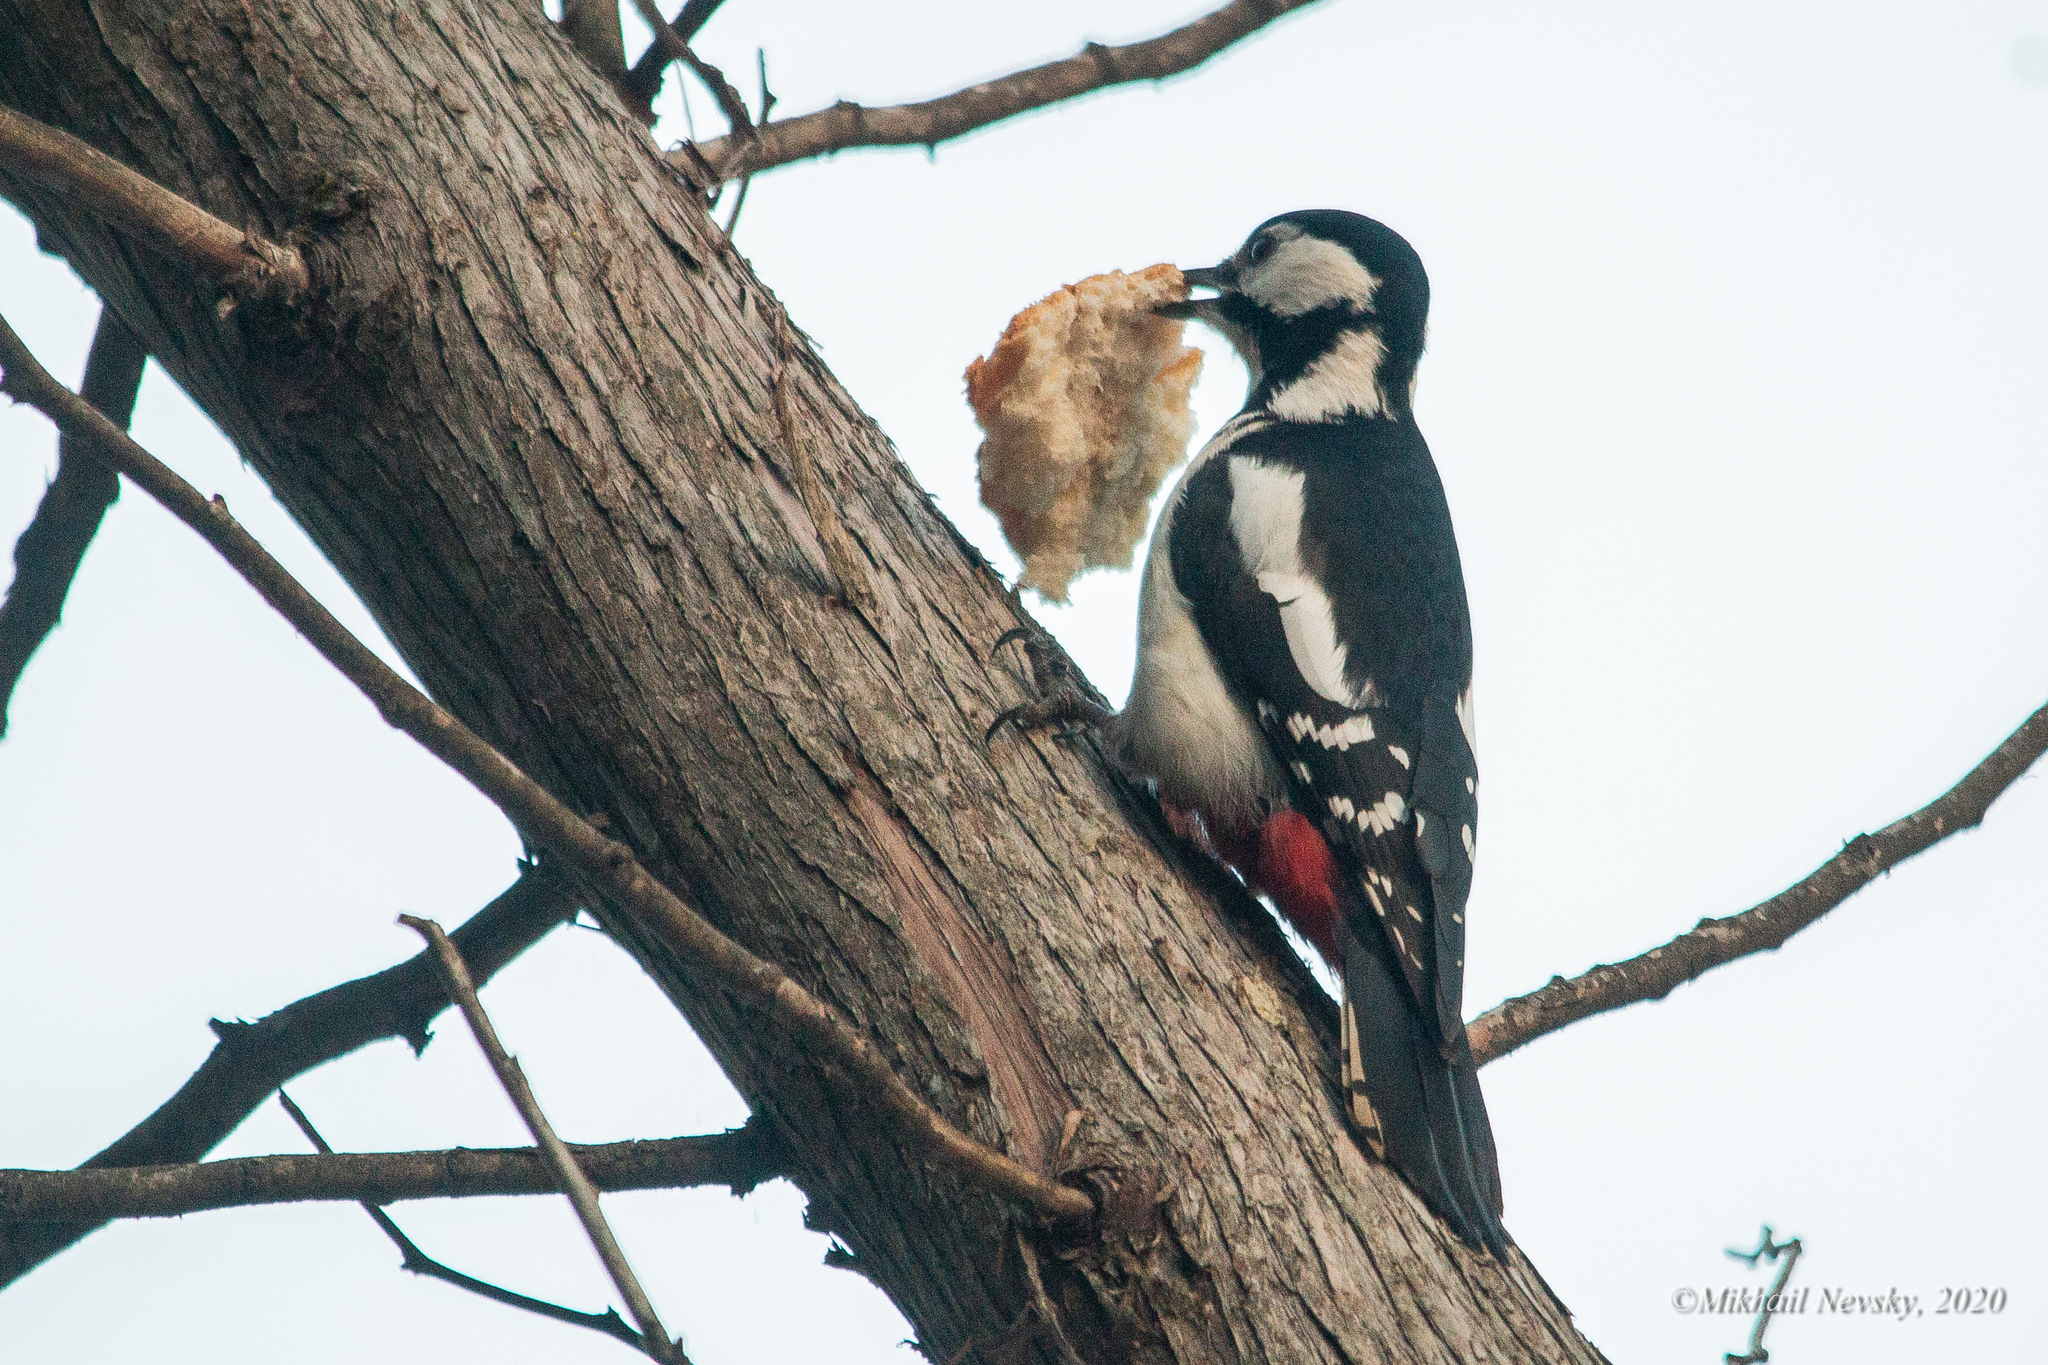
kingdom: Animalia
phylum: Chordata
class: Aves
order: Piciformes
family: Picidae
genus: Dendrocopos
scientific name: Dendrocopos major
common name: Great spotted woodpecker
